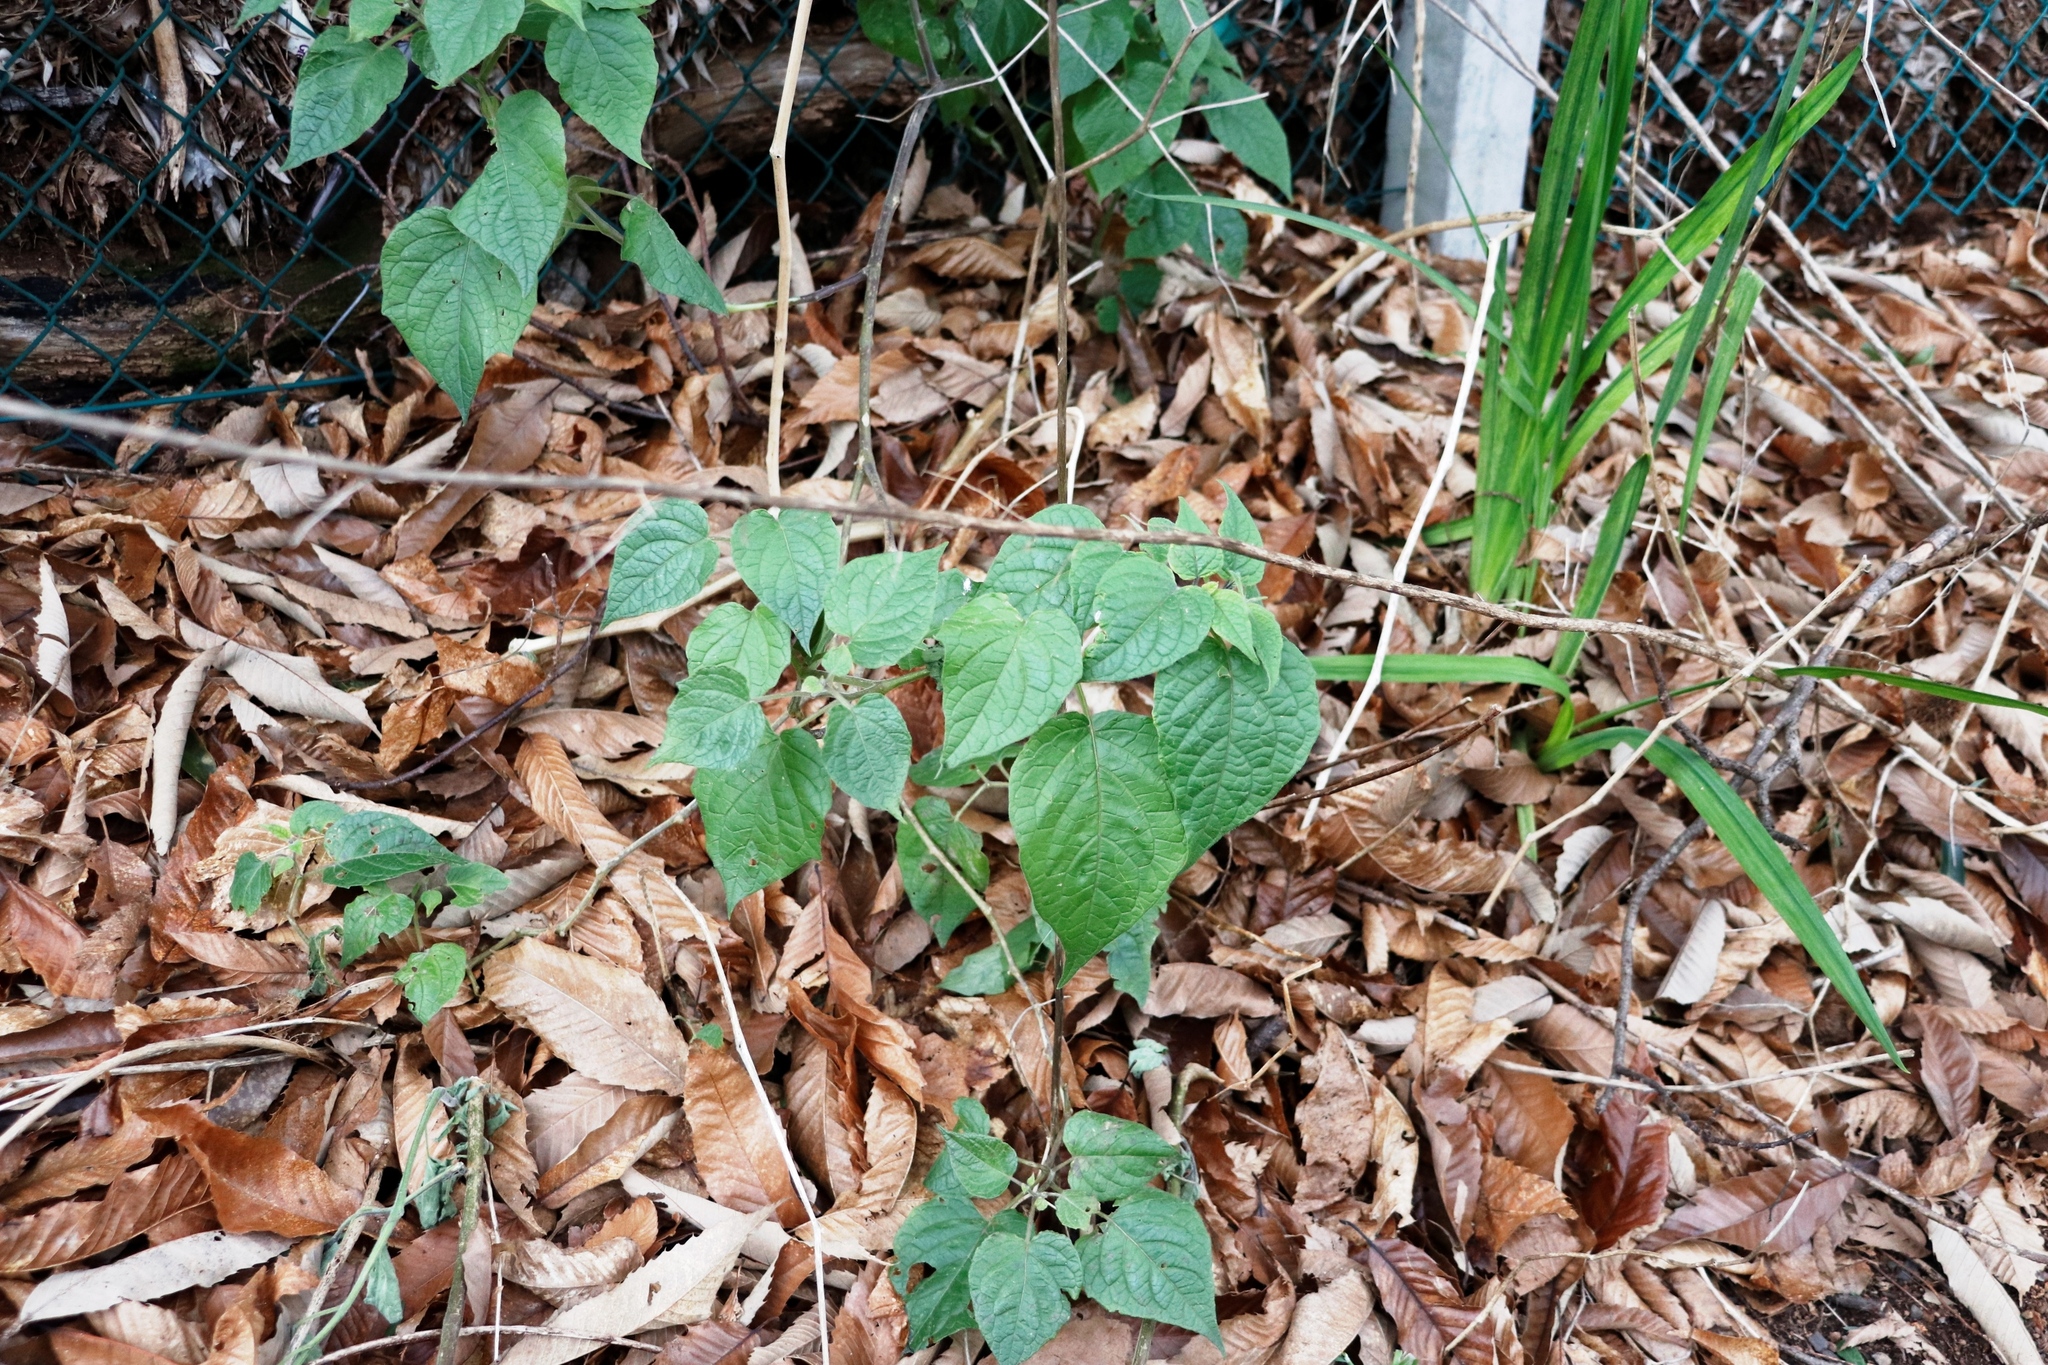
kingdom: Plantae
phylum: Tracheophyta
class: Magnoliopsida
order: Solanales
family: Solanaceae
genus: Physalis
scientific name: Physalis peruviana
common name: Cape-gooseberry
